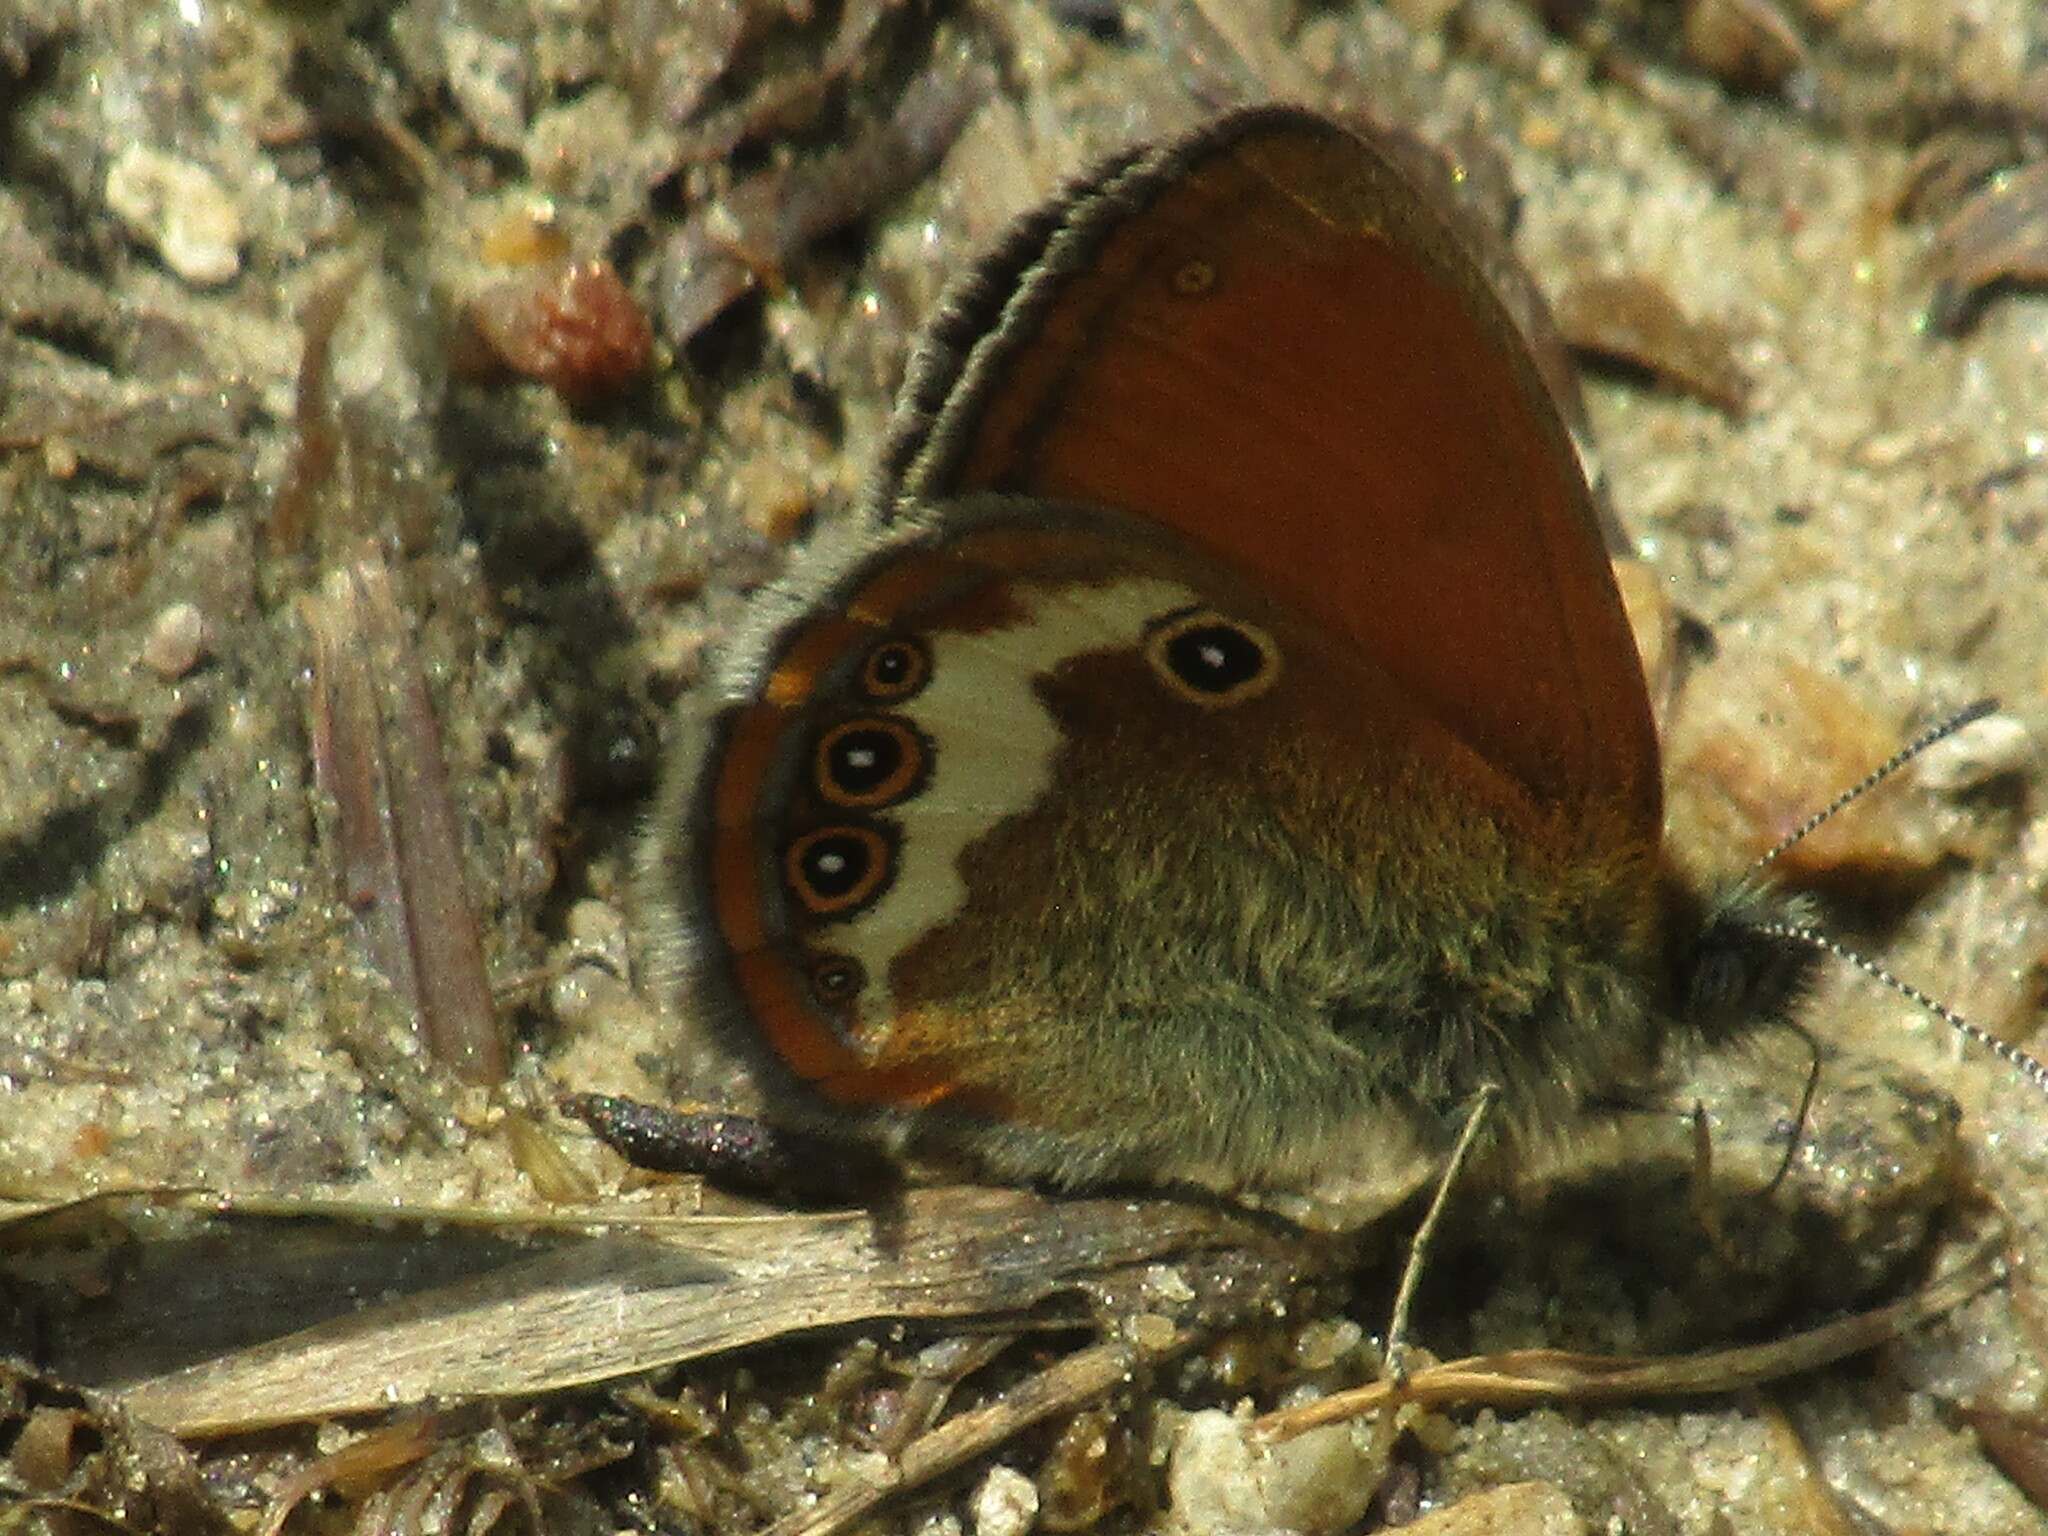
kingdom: Animalia
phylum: Arthropoda
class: Insecta
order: Lepidoptera
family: Nymphalidae
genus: Coenonympha
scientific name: Coenonympha arcania
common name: Pearly heath
